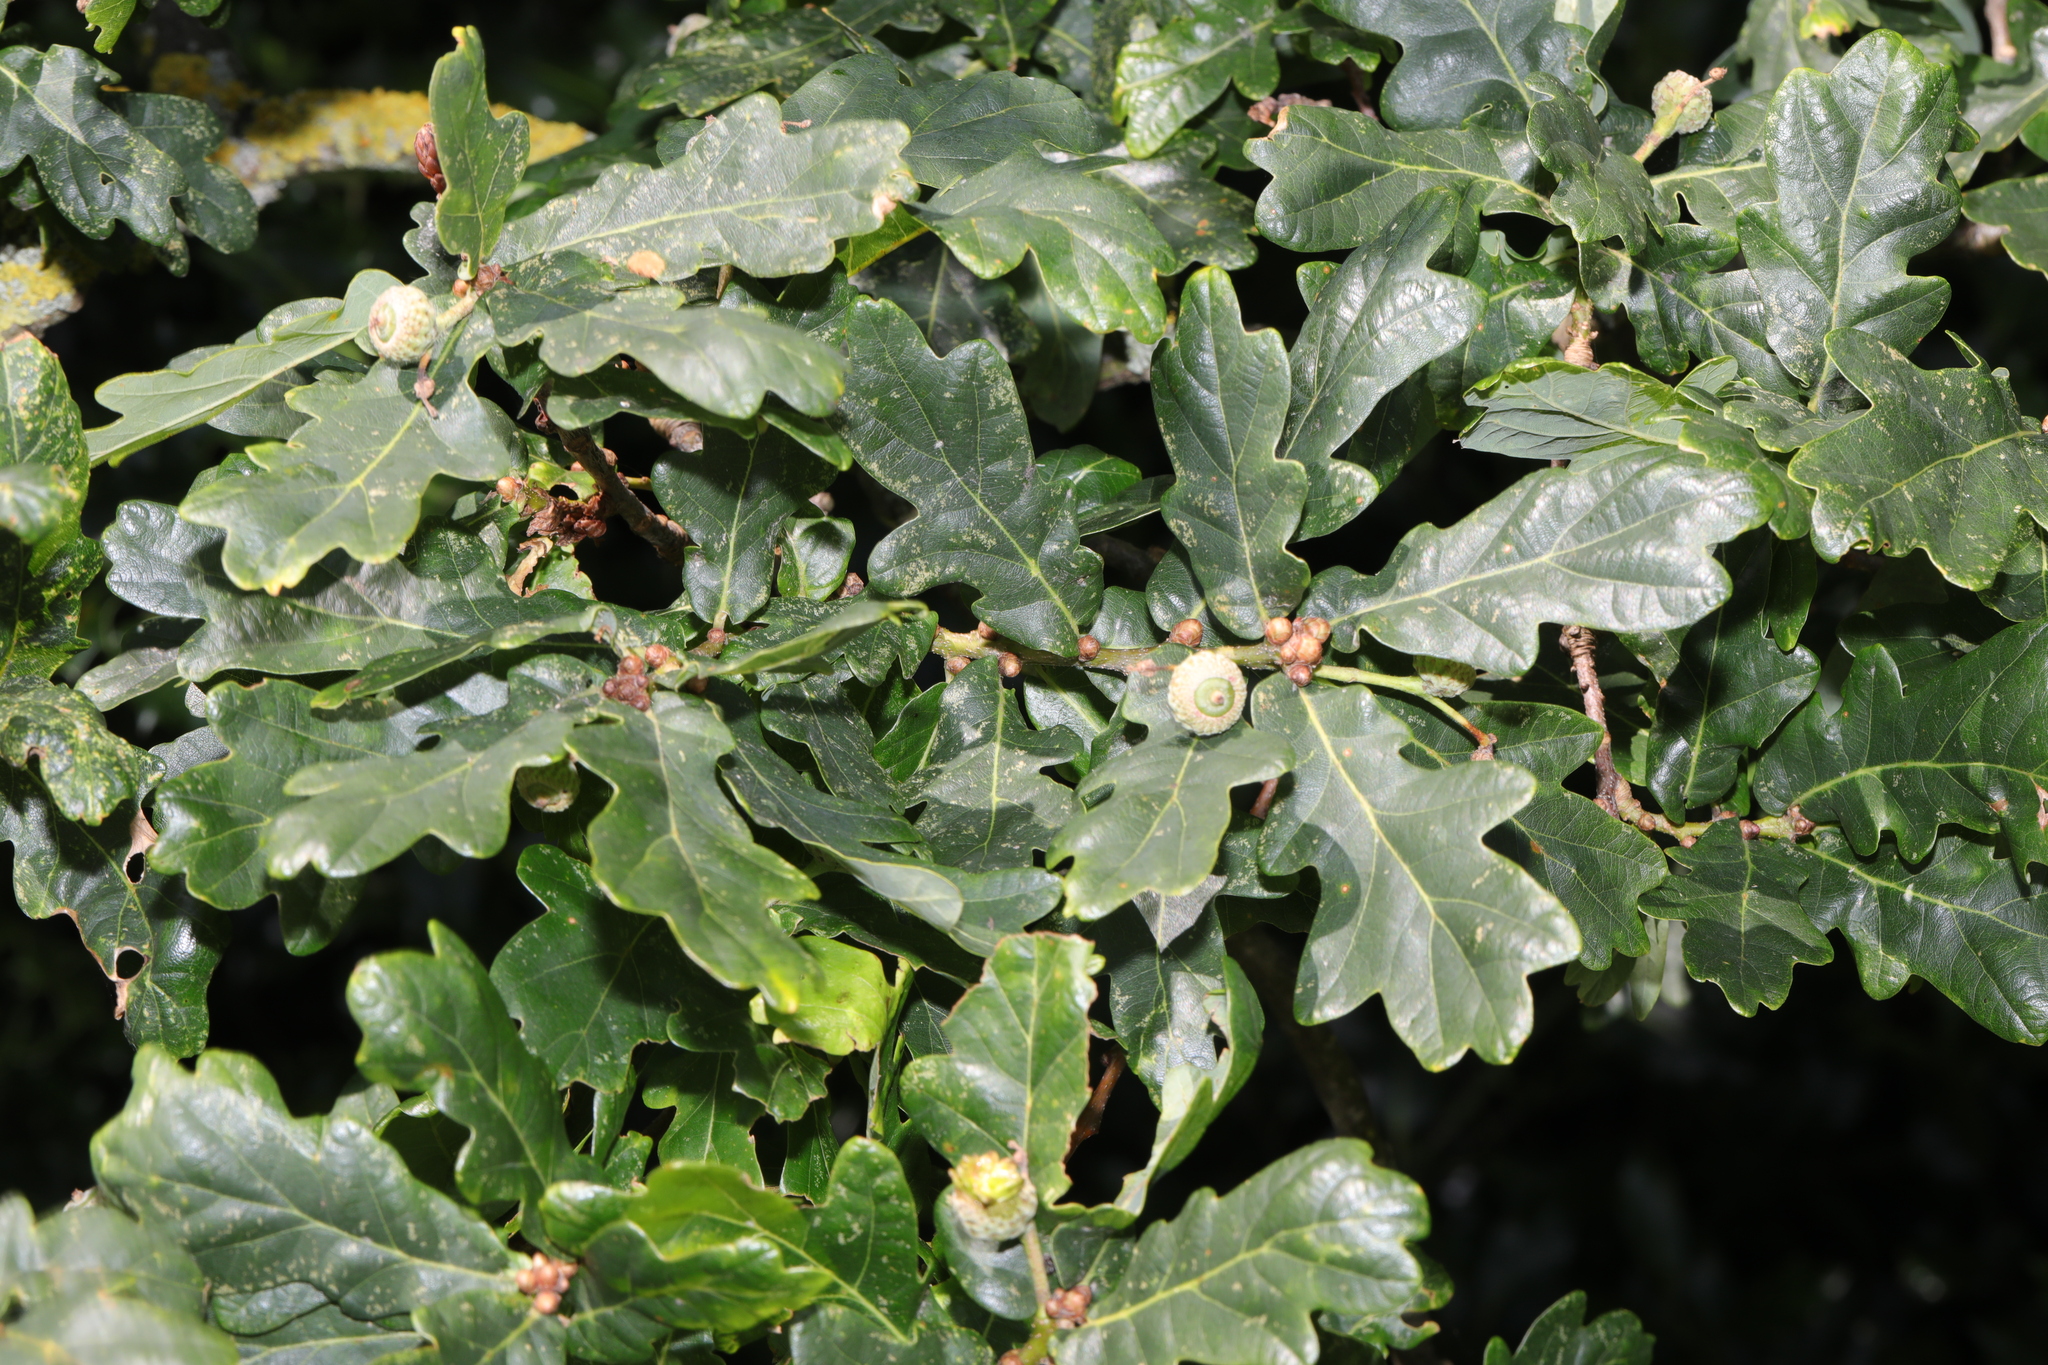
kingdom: Plantae
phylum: Tracheophyta
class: Magnoliopsida
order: Fagales
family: Fagaceae
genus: Quercus
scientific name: Quercus robur
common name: Pedunculate oak
